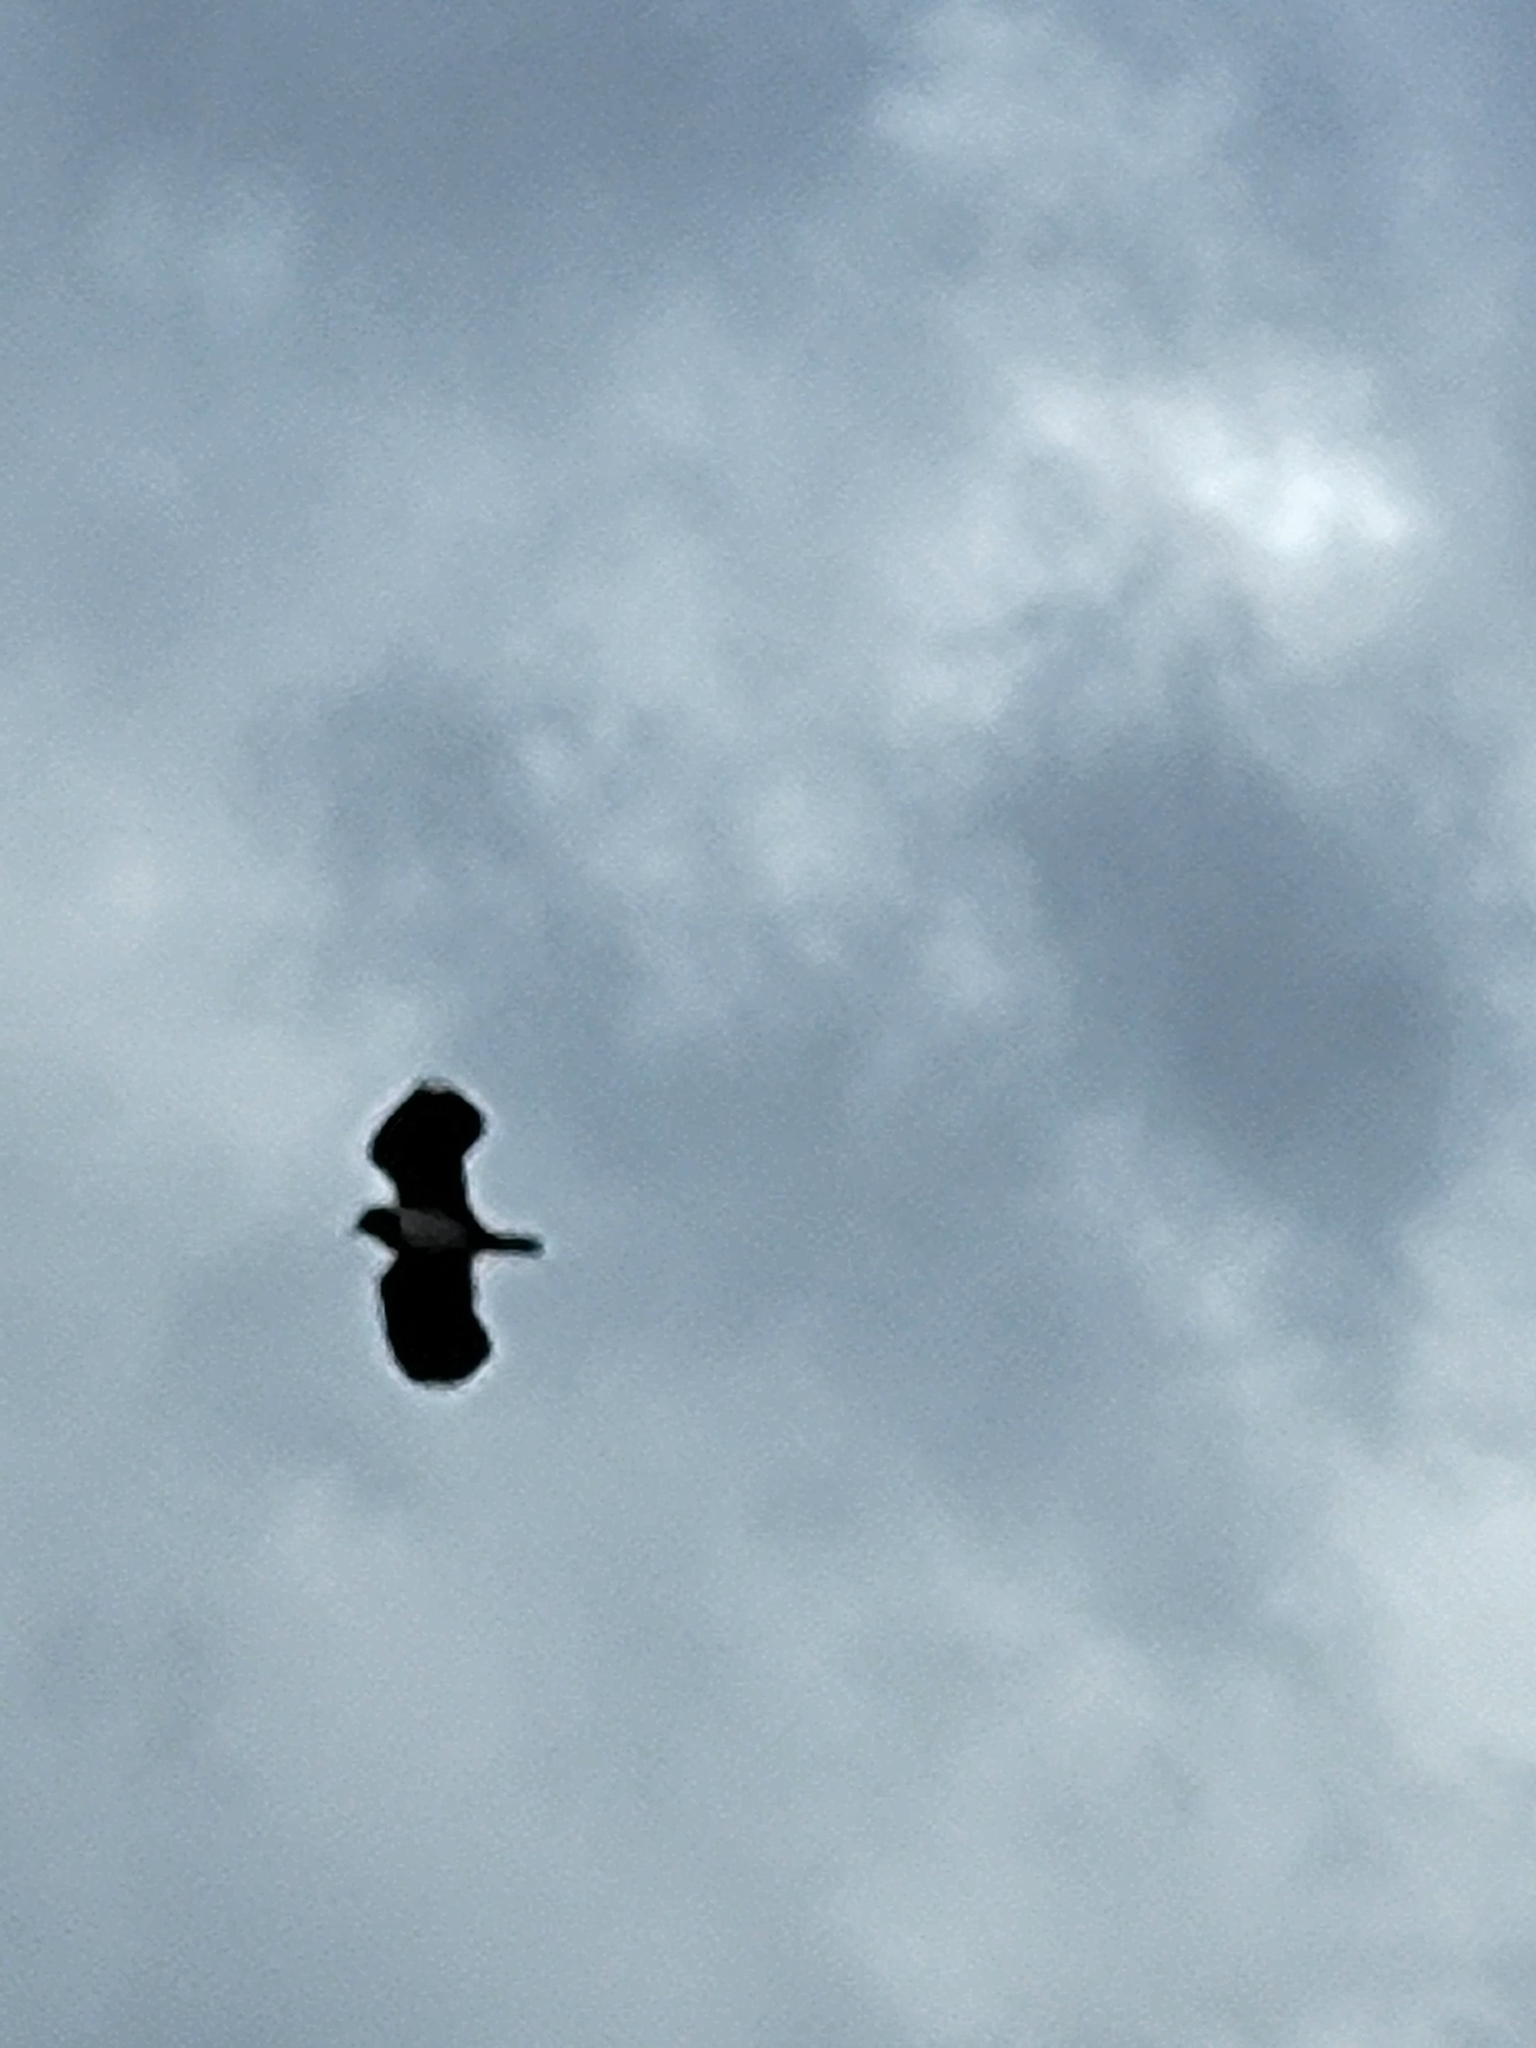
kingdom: Animalia
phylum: Chordata
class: Aves
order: Charadriiformes
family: Charadriidae
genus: Vanellus
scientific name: Vanellus vanellus
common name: Northern lapwing
